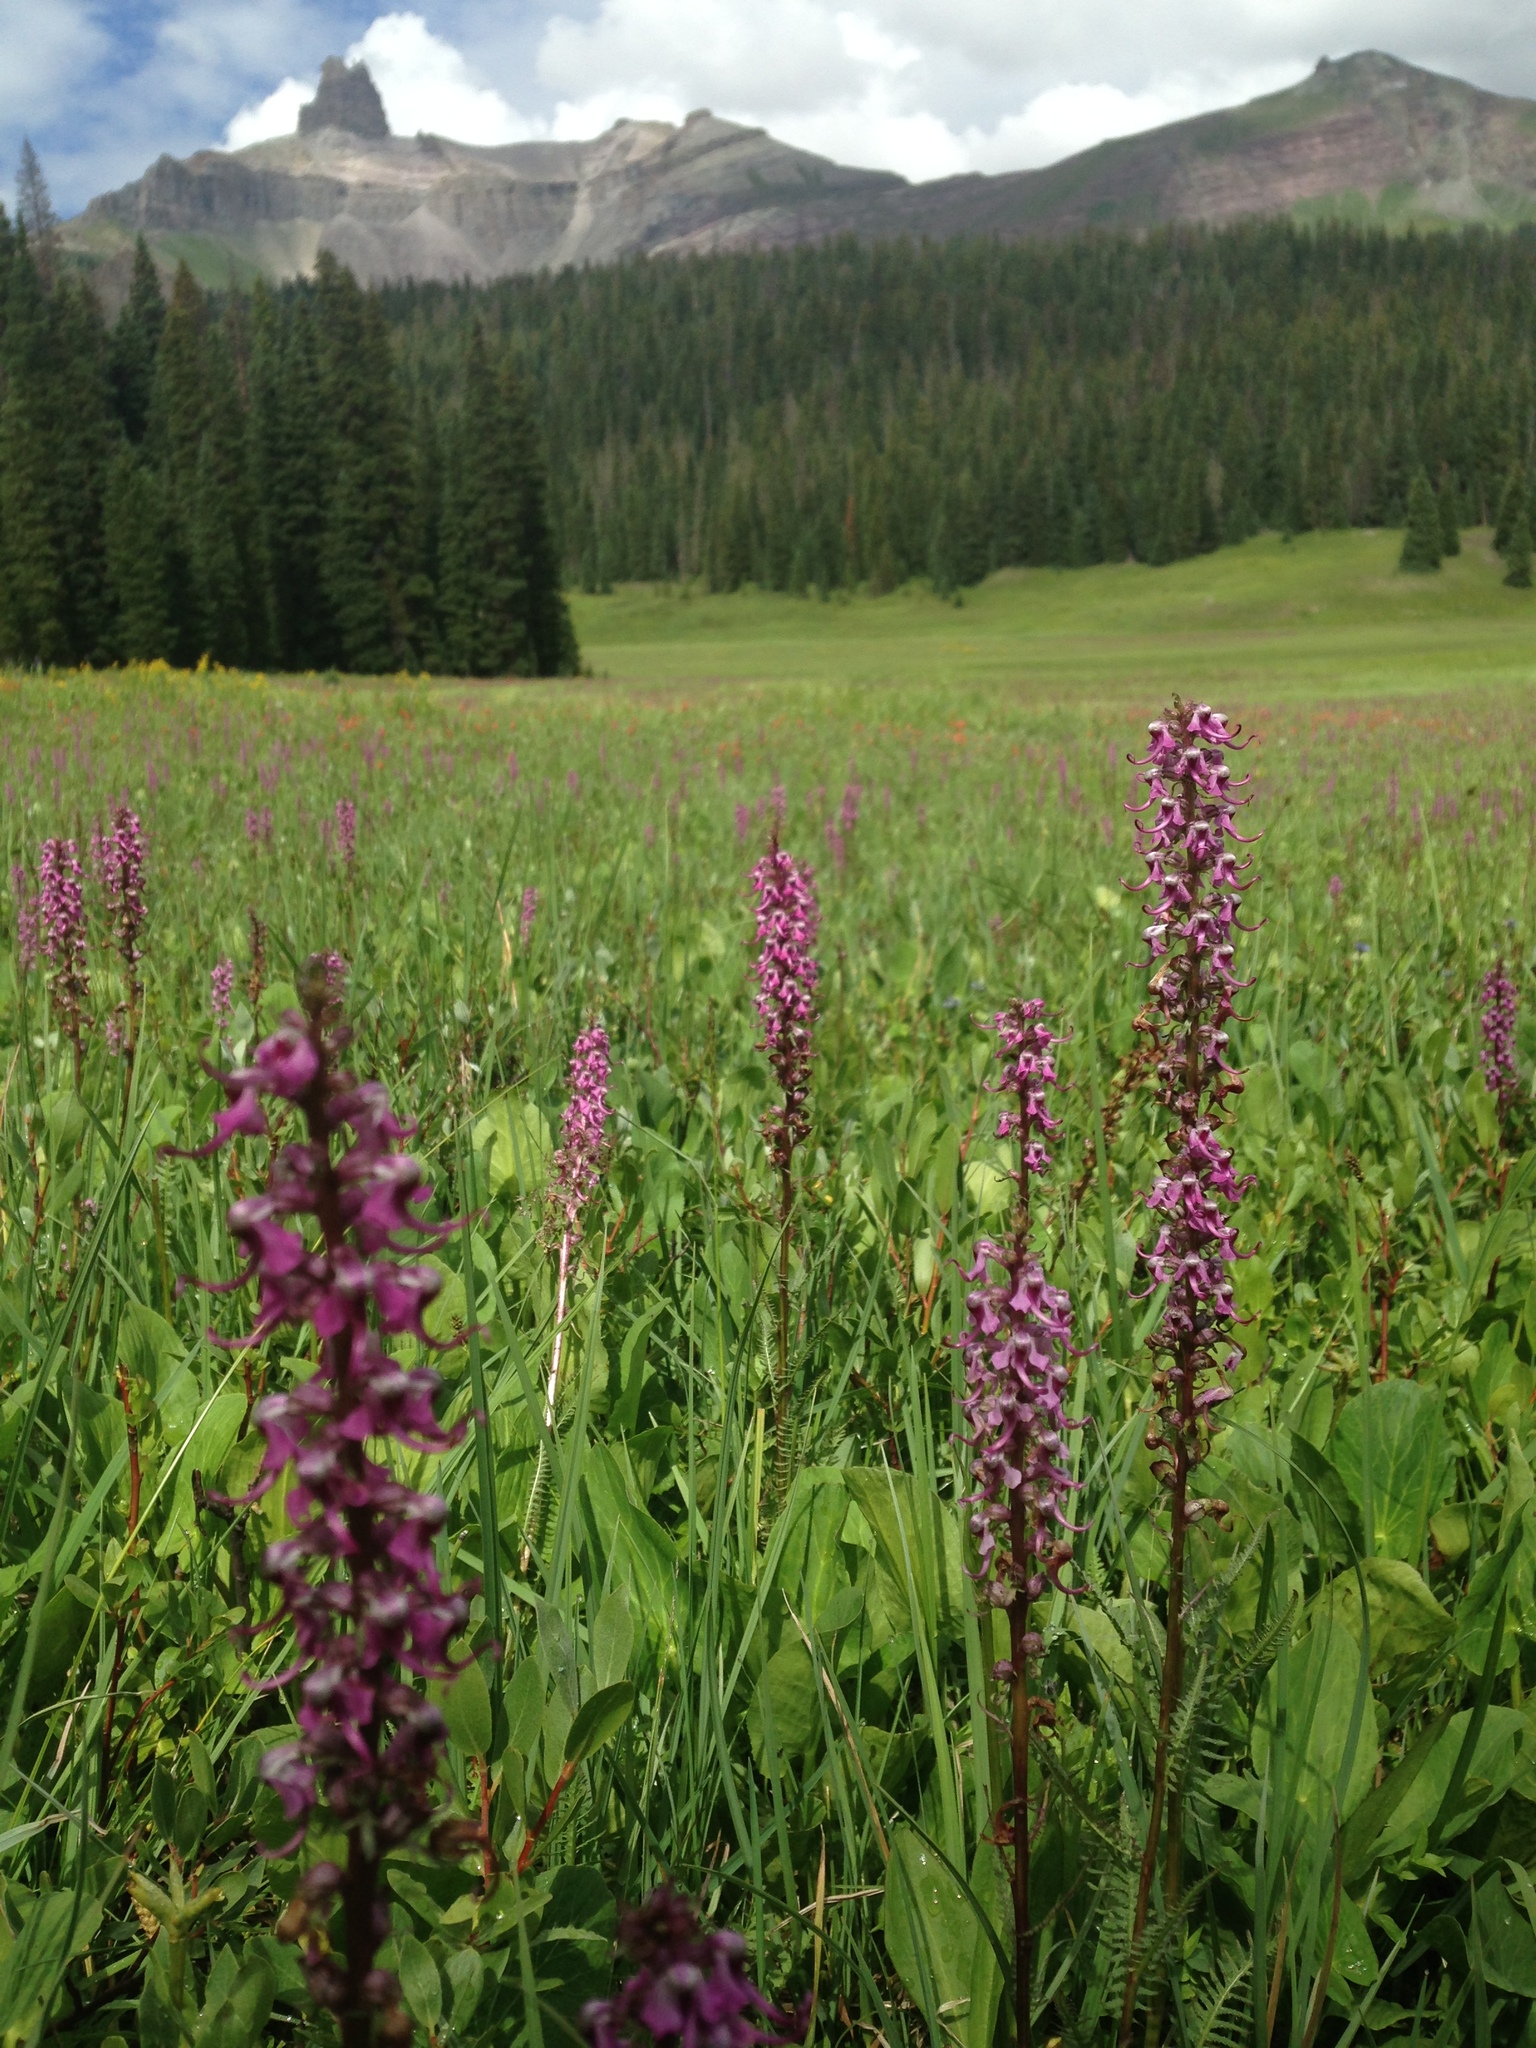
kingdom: Plantae
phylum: Tracheophyta
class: Magnoliopsida
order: Lamiales
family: Orobanchaceae
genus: Pedicularis
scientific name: Pedicularis groenlandica
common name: Elephant's-head
